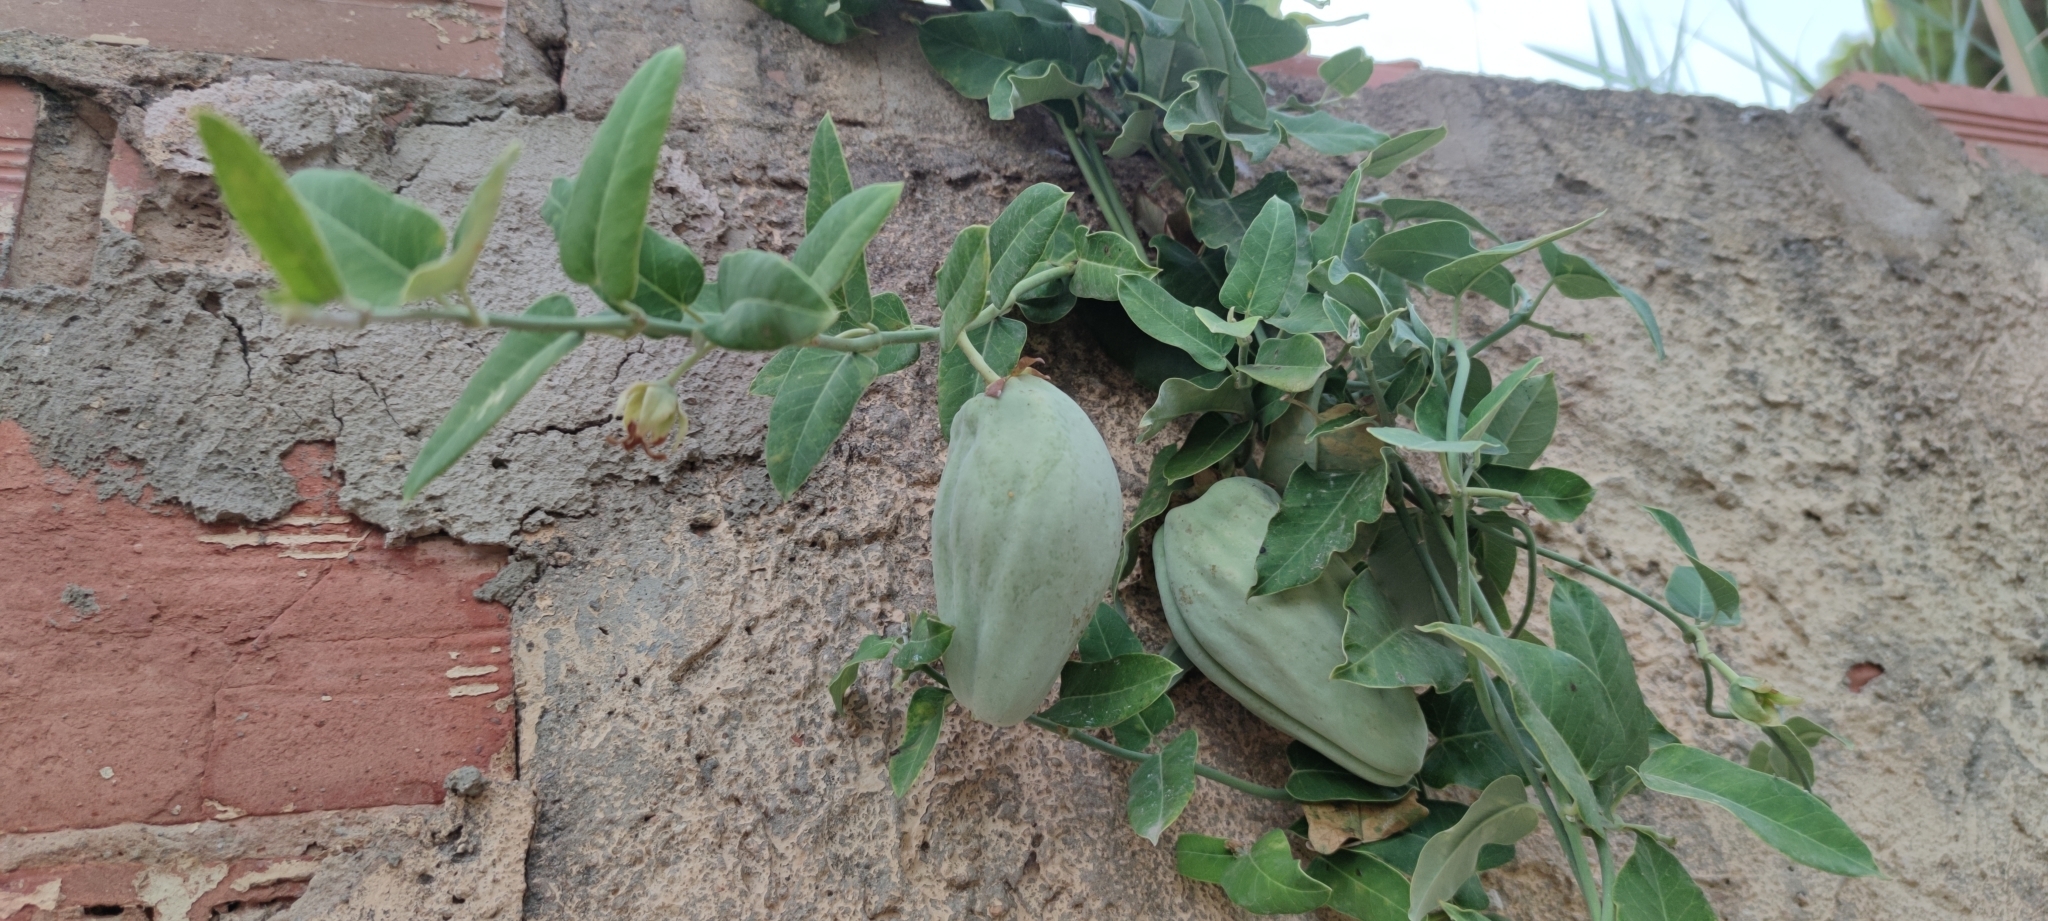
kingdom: Plantae
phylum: Tracheophyta
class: Magnoliopsida
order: Gentianales
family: Apocynaceae
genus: Araujia
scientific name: Araujia sericifera
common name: White bladderflower
